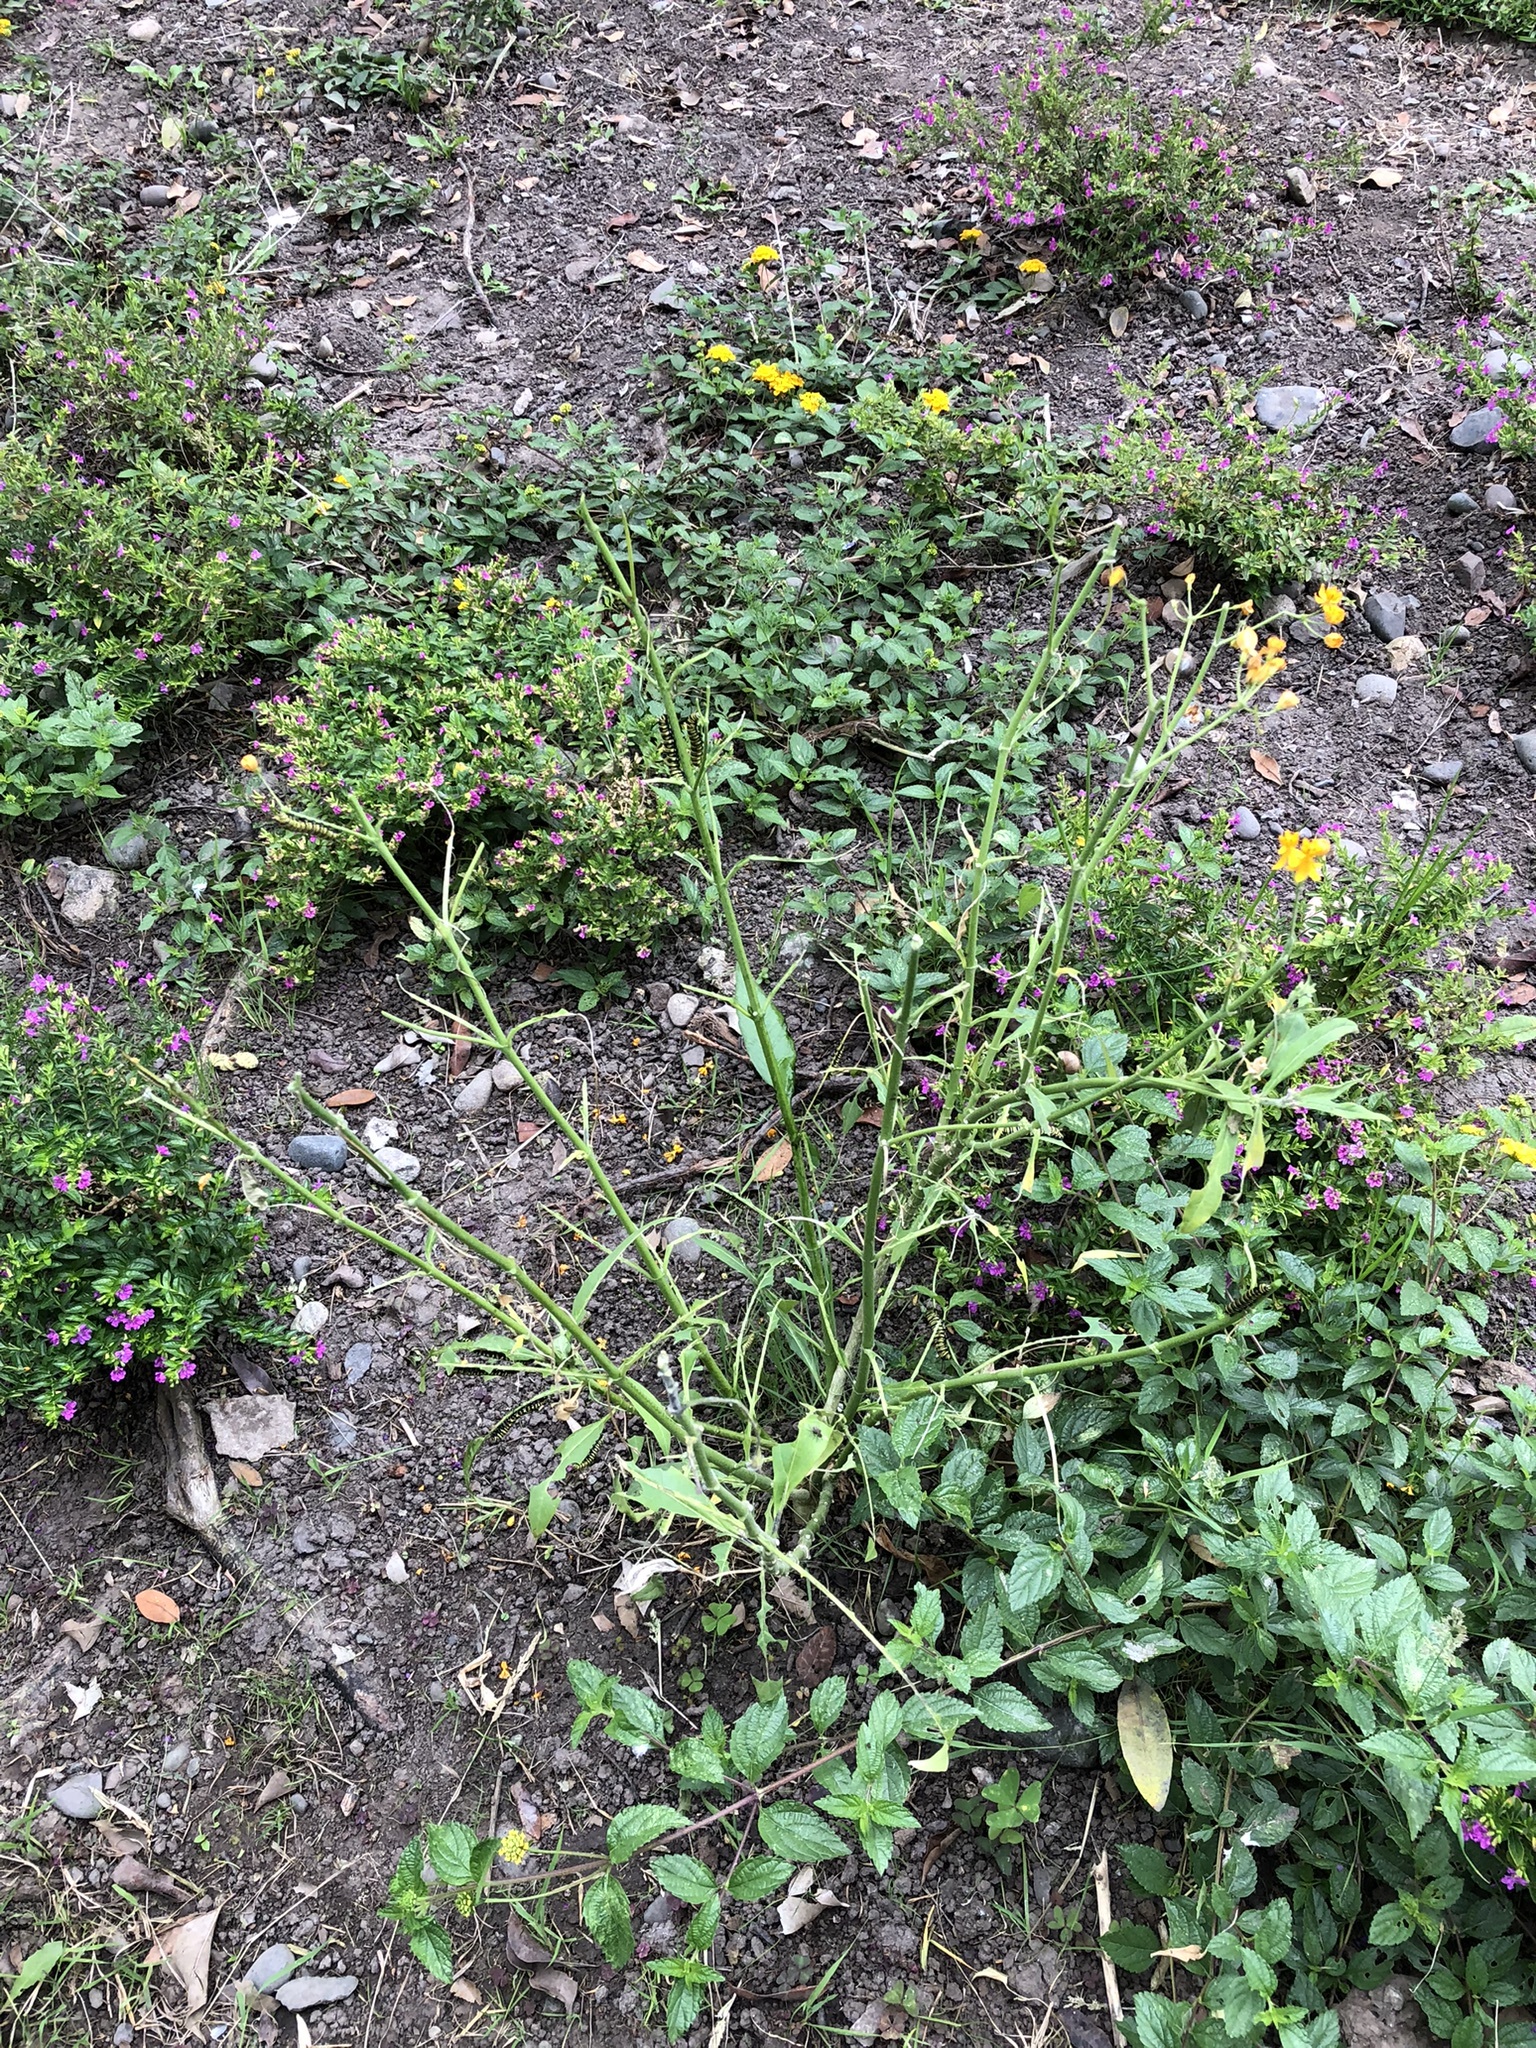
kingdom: Animalia
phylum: Arthropoda
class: Insecta
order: Lepidoptera
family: Nymphalidae
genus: Danaus
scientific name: Danaus plexippus
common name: Monarch
